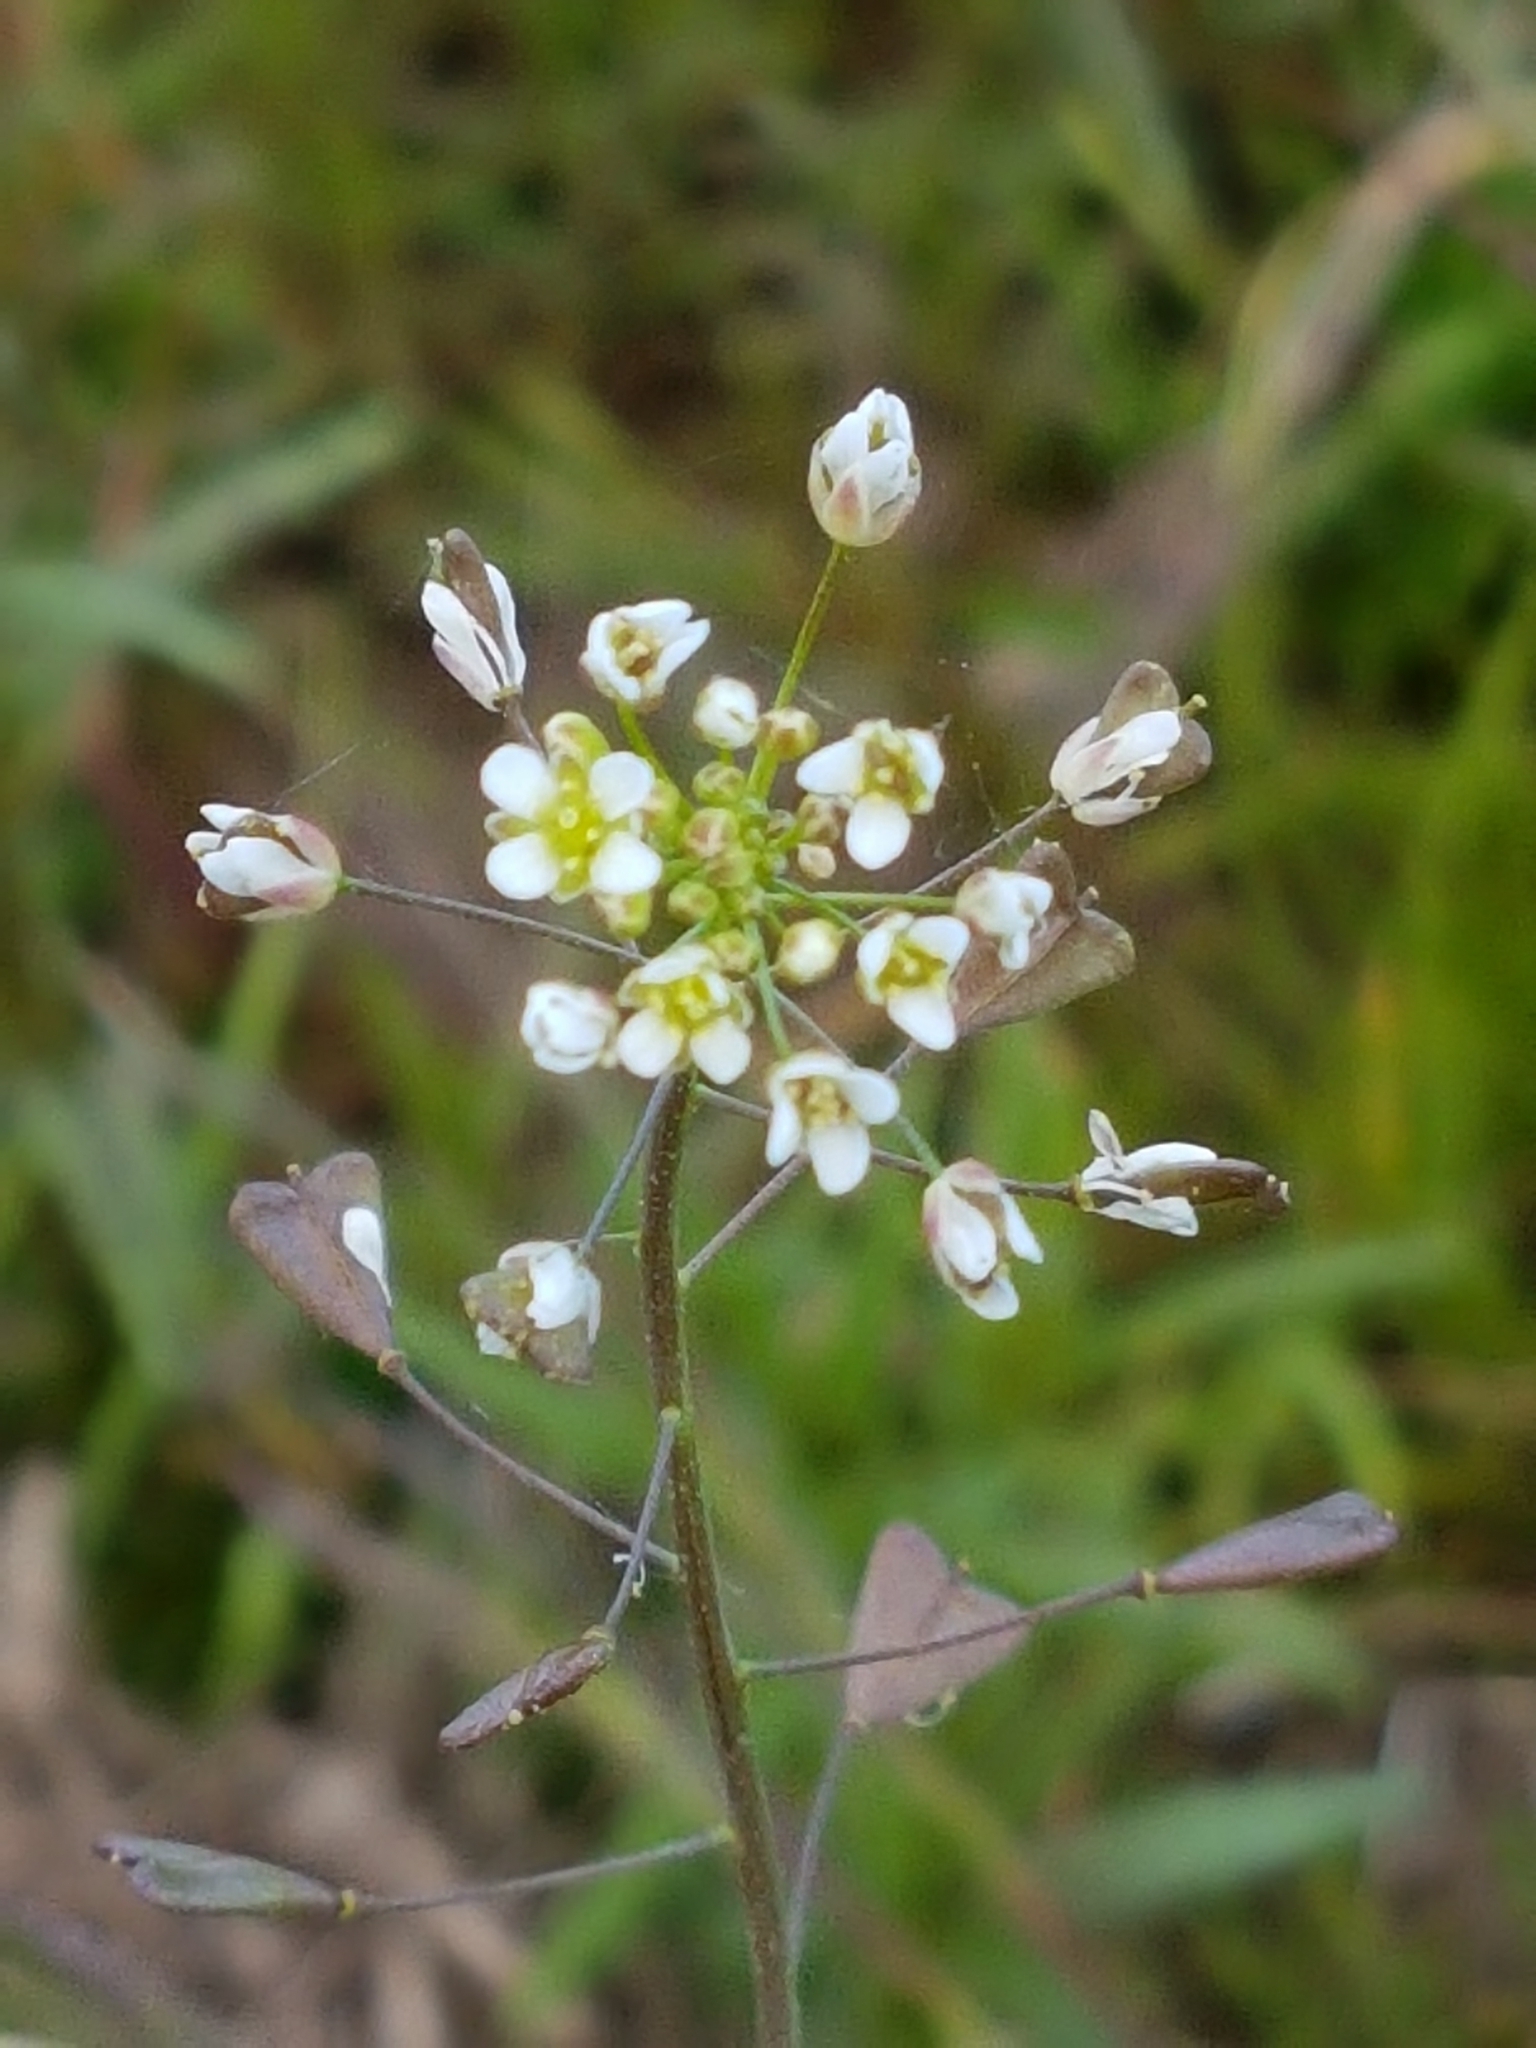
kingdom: Plantae
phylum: Tracheophyta
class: Magnoliopsida
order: Brassicales
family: Brassicaceae
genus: Capsella
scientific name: Capsella bursa-pastoris
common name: Shepherd's purse
